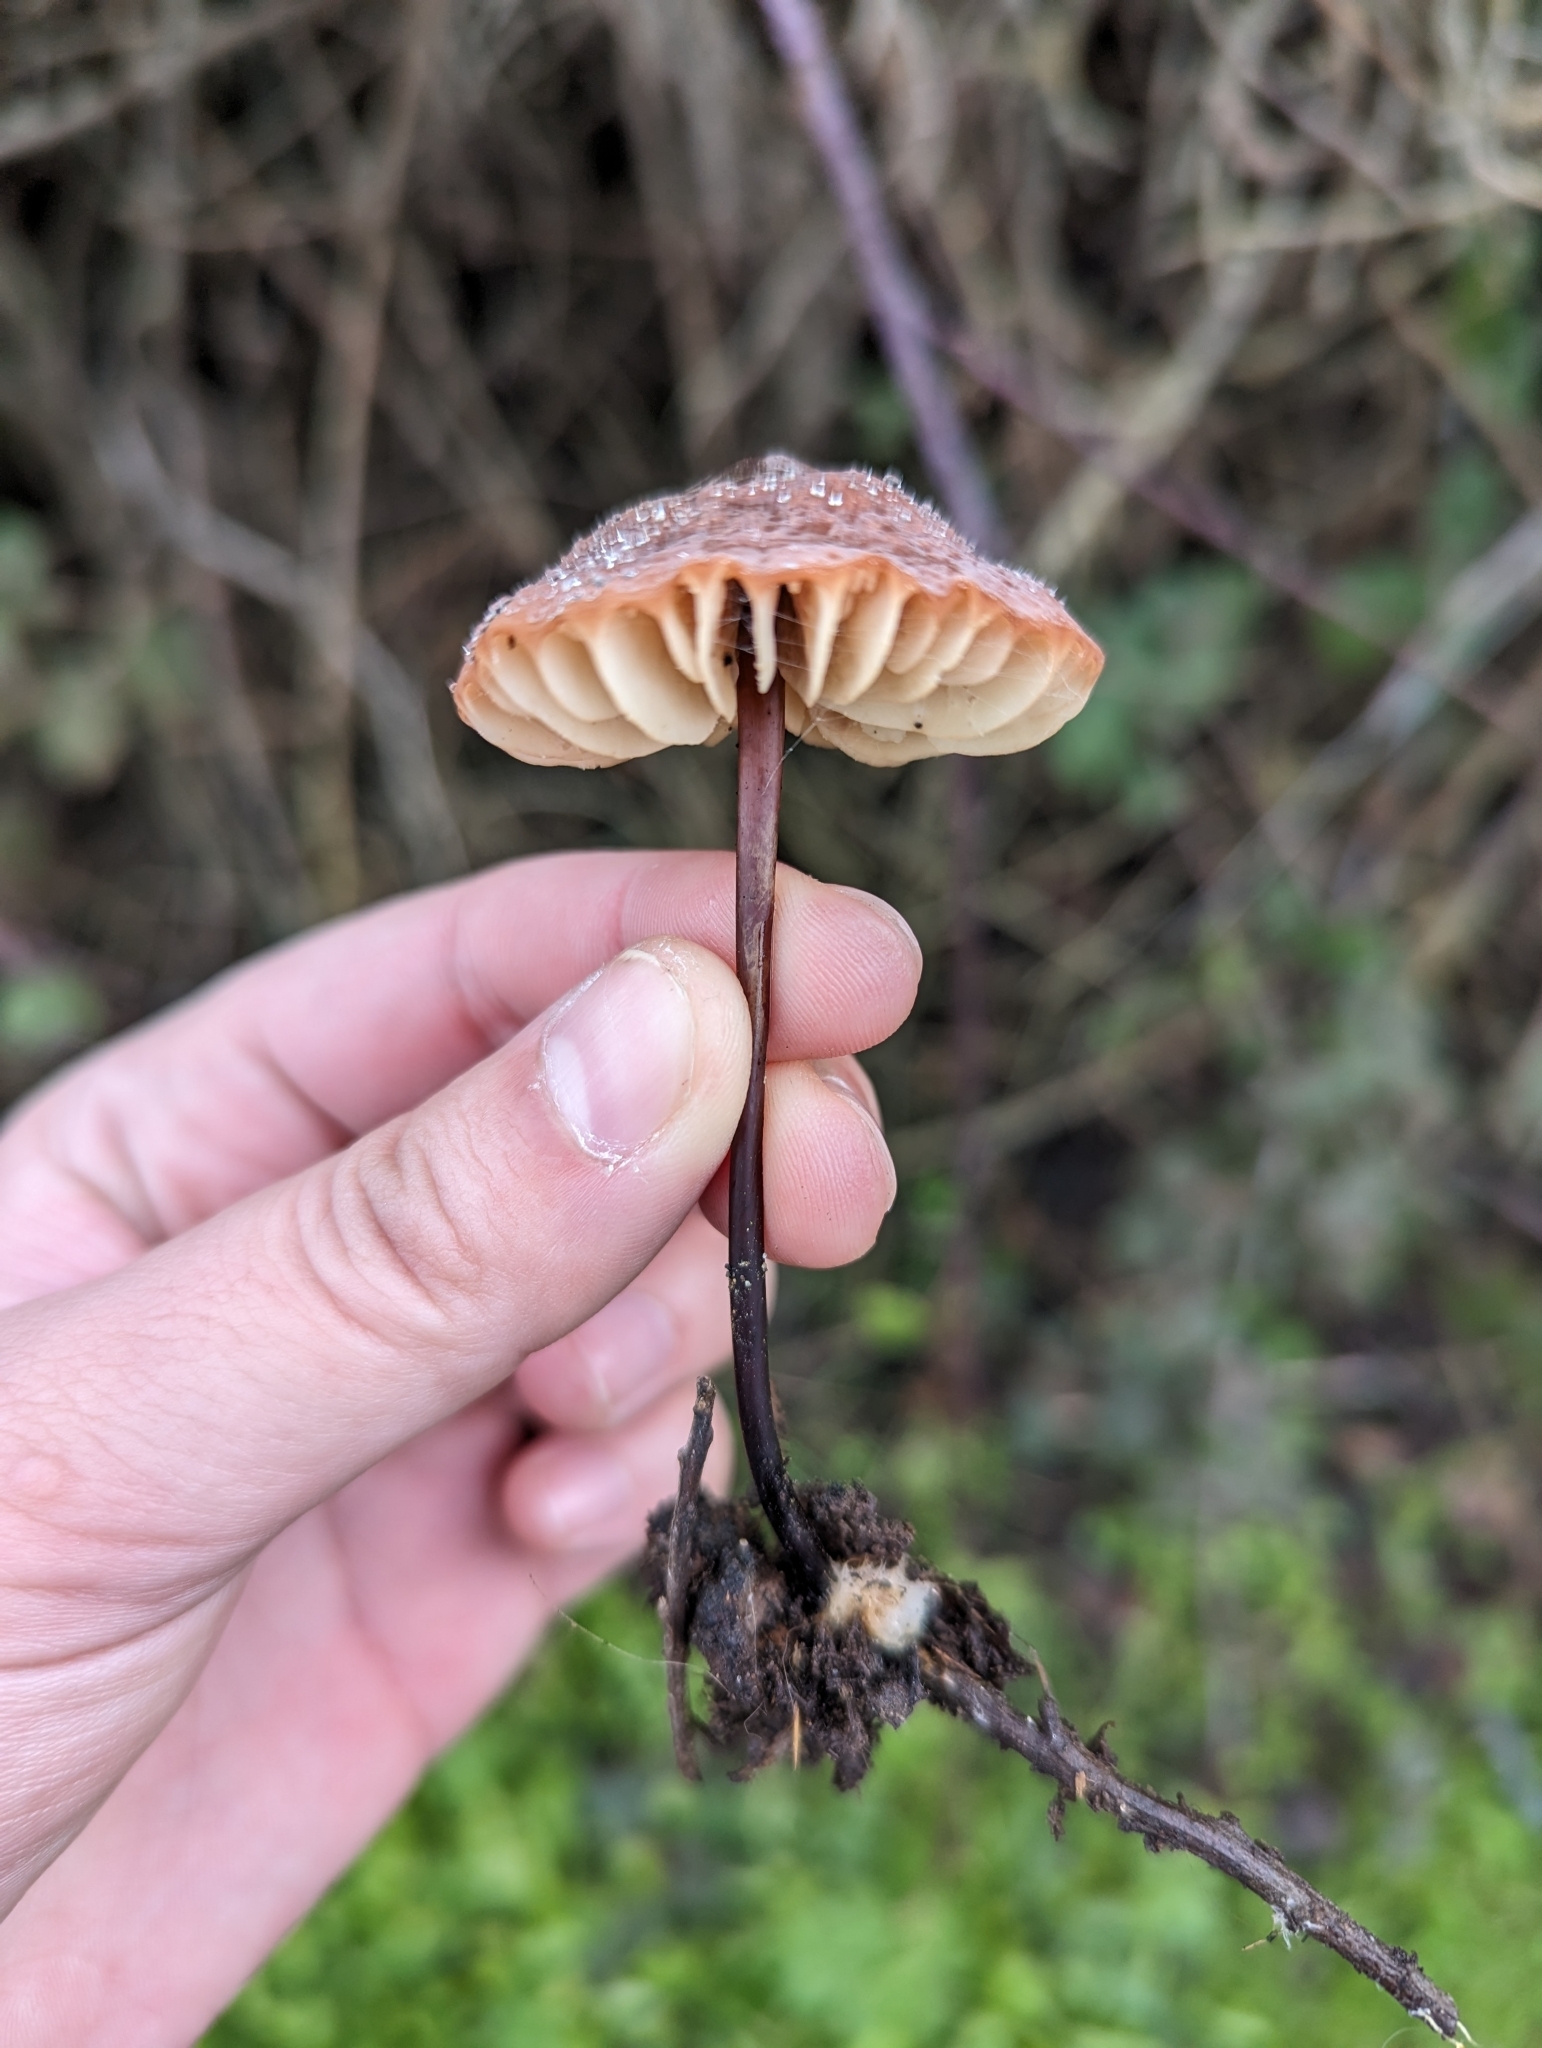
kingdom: Fungi
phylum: Basidiomycota
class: Agaricomycetes
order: Agaricales
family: Marasmiaceae
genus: Marasmius
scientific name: Marasmius plicatulus
